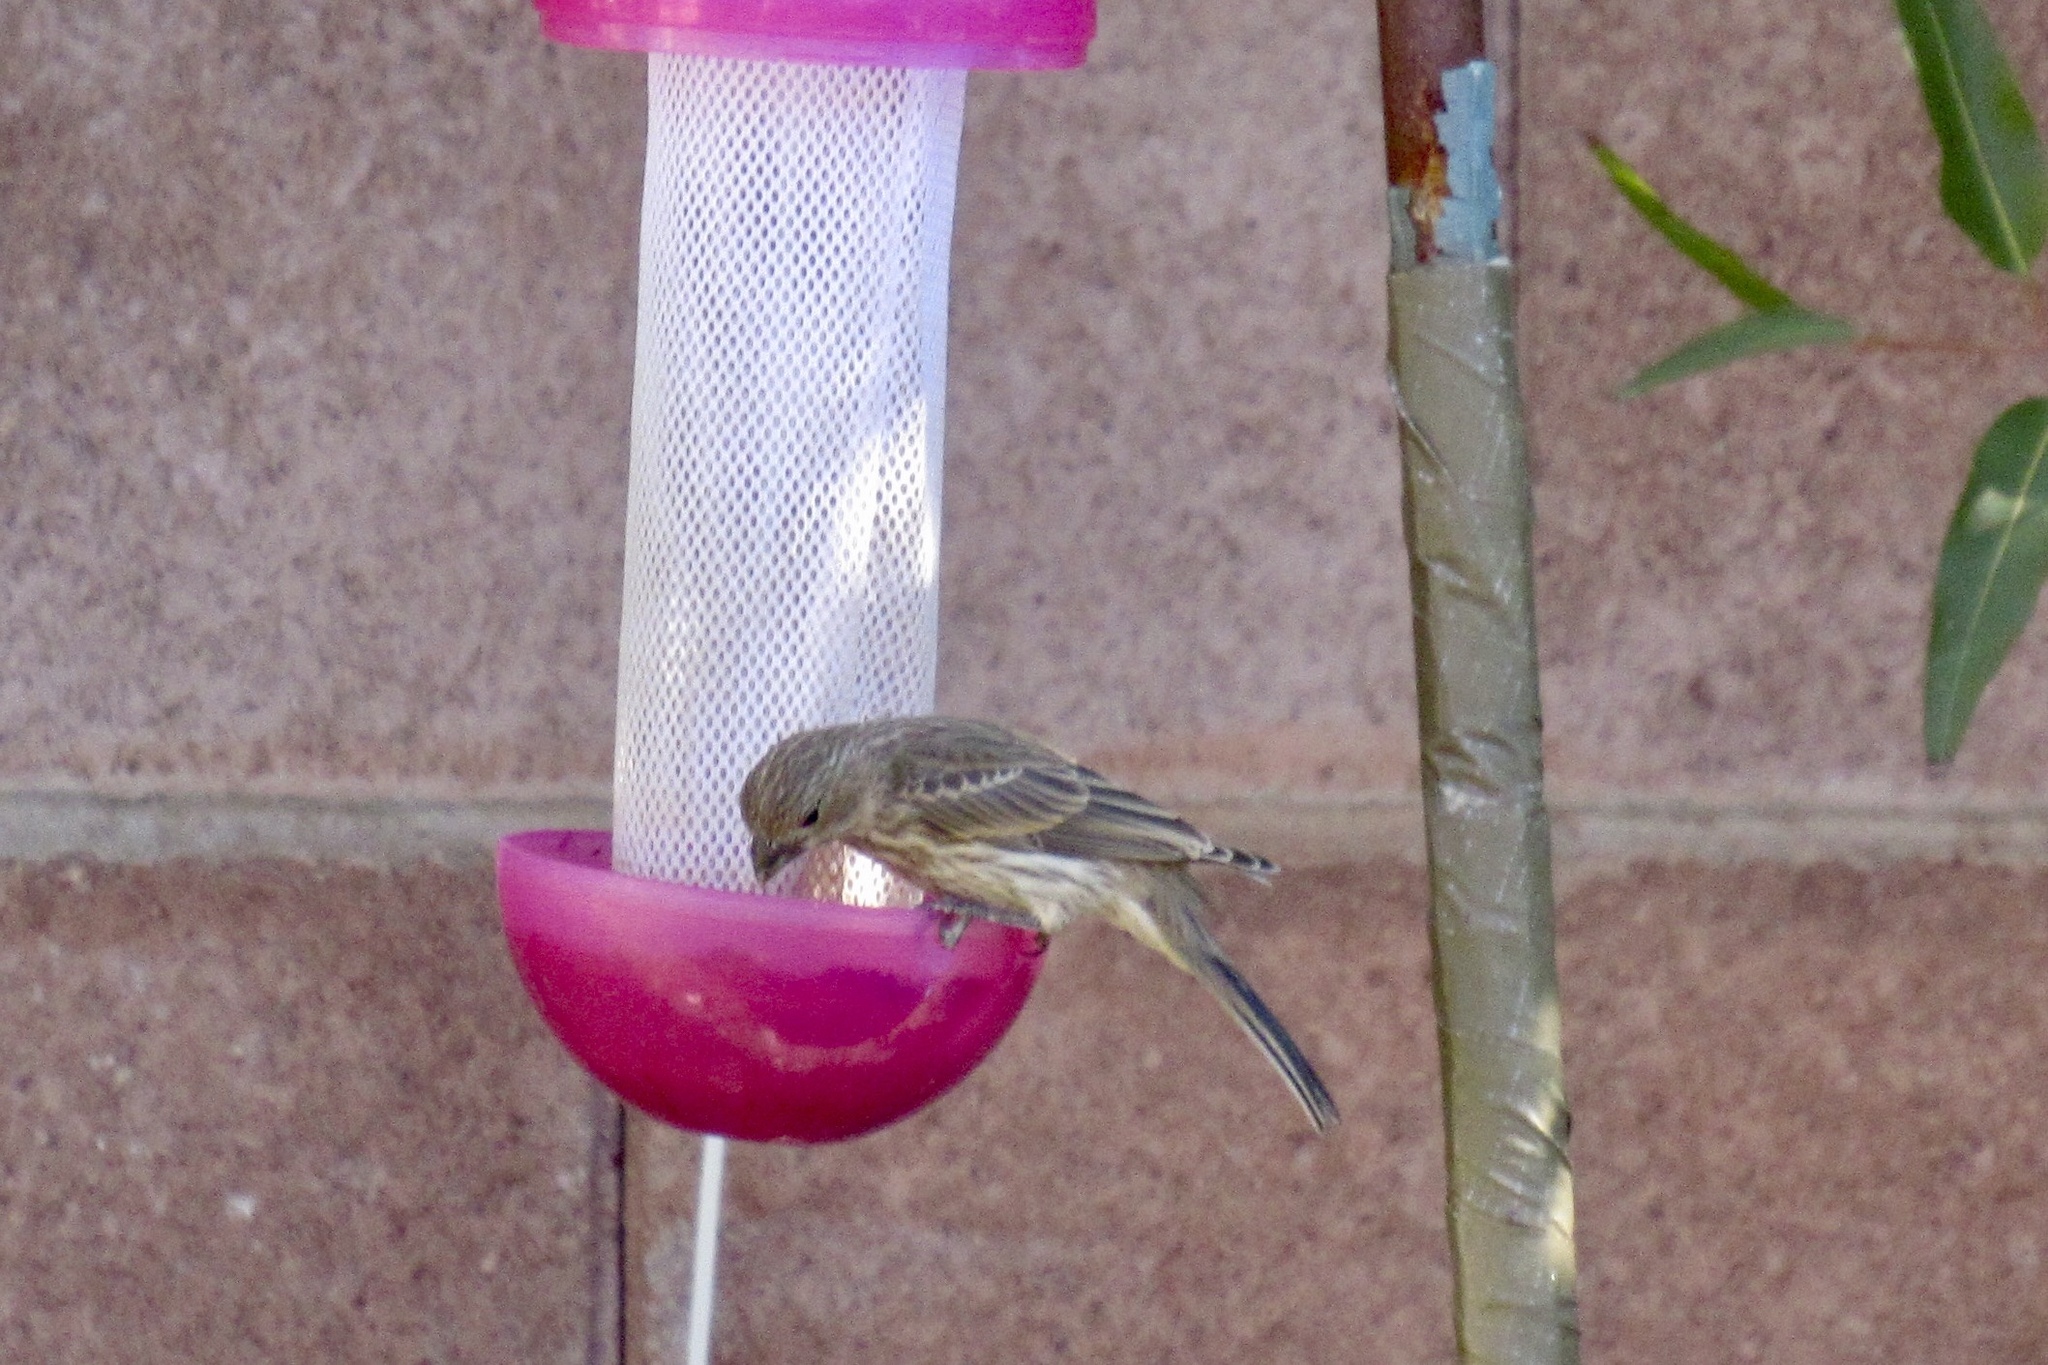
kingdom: Animalia
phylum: Chordata
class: Aves
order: Passeriformes
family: Fringillidae
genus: Haemorhous
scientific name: Haemorhous mexicanus
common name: House finch
